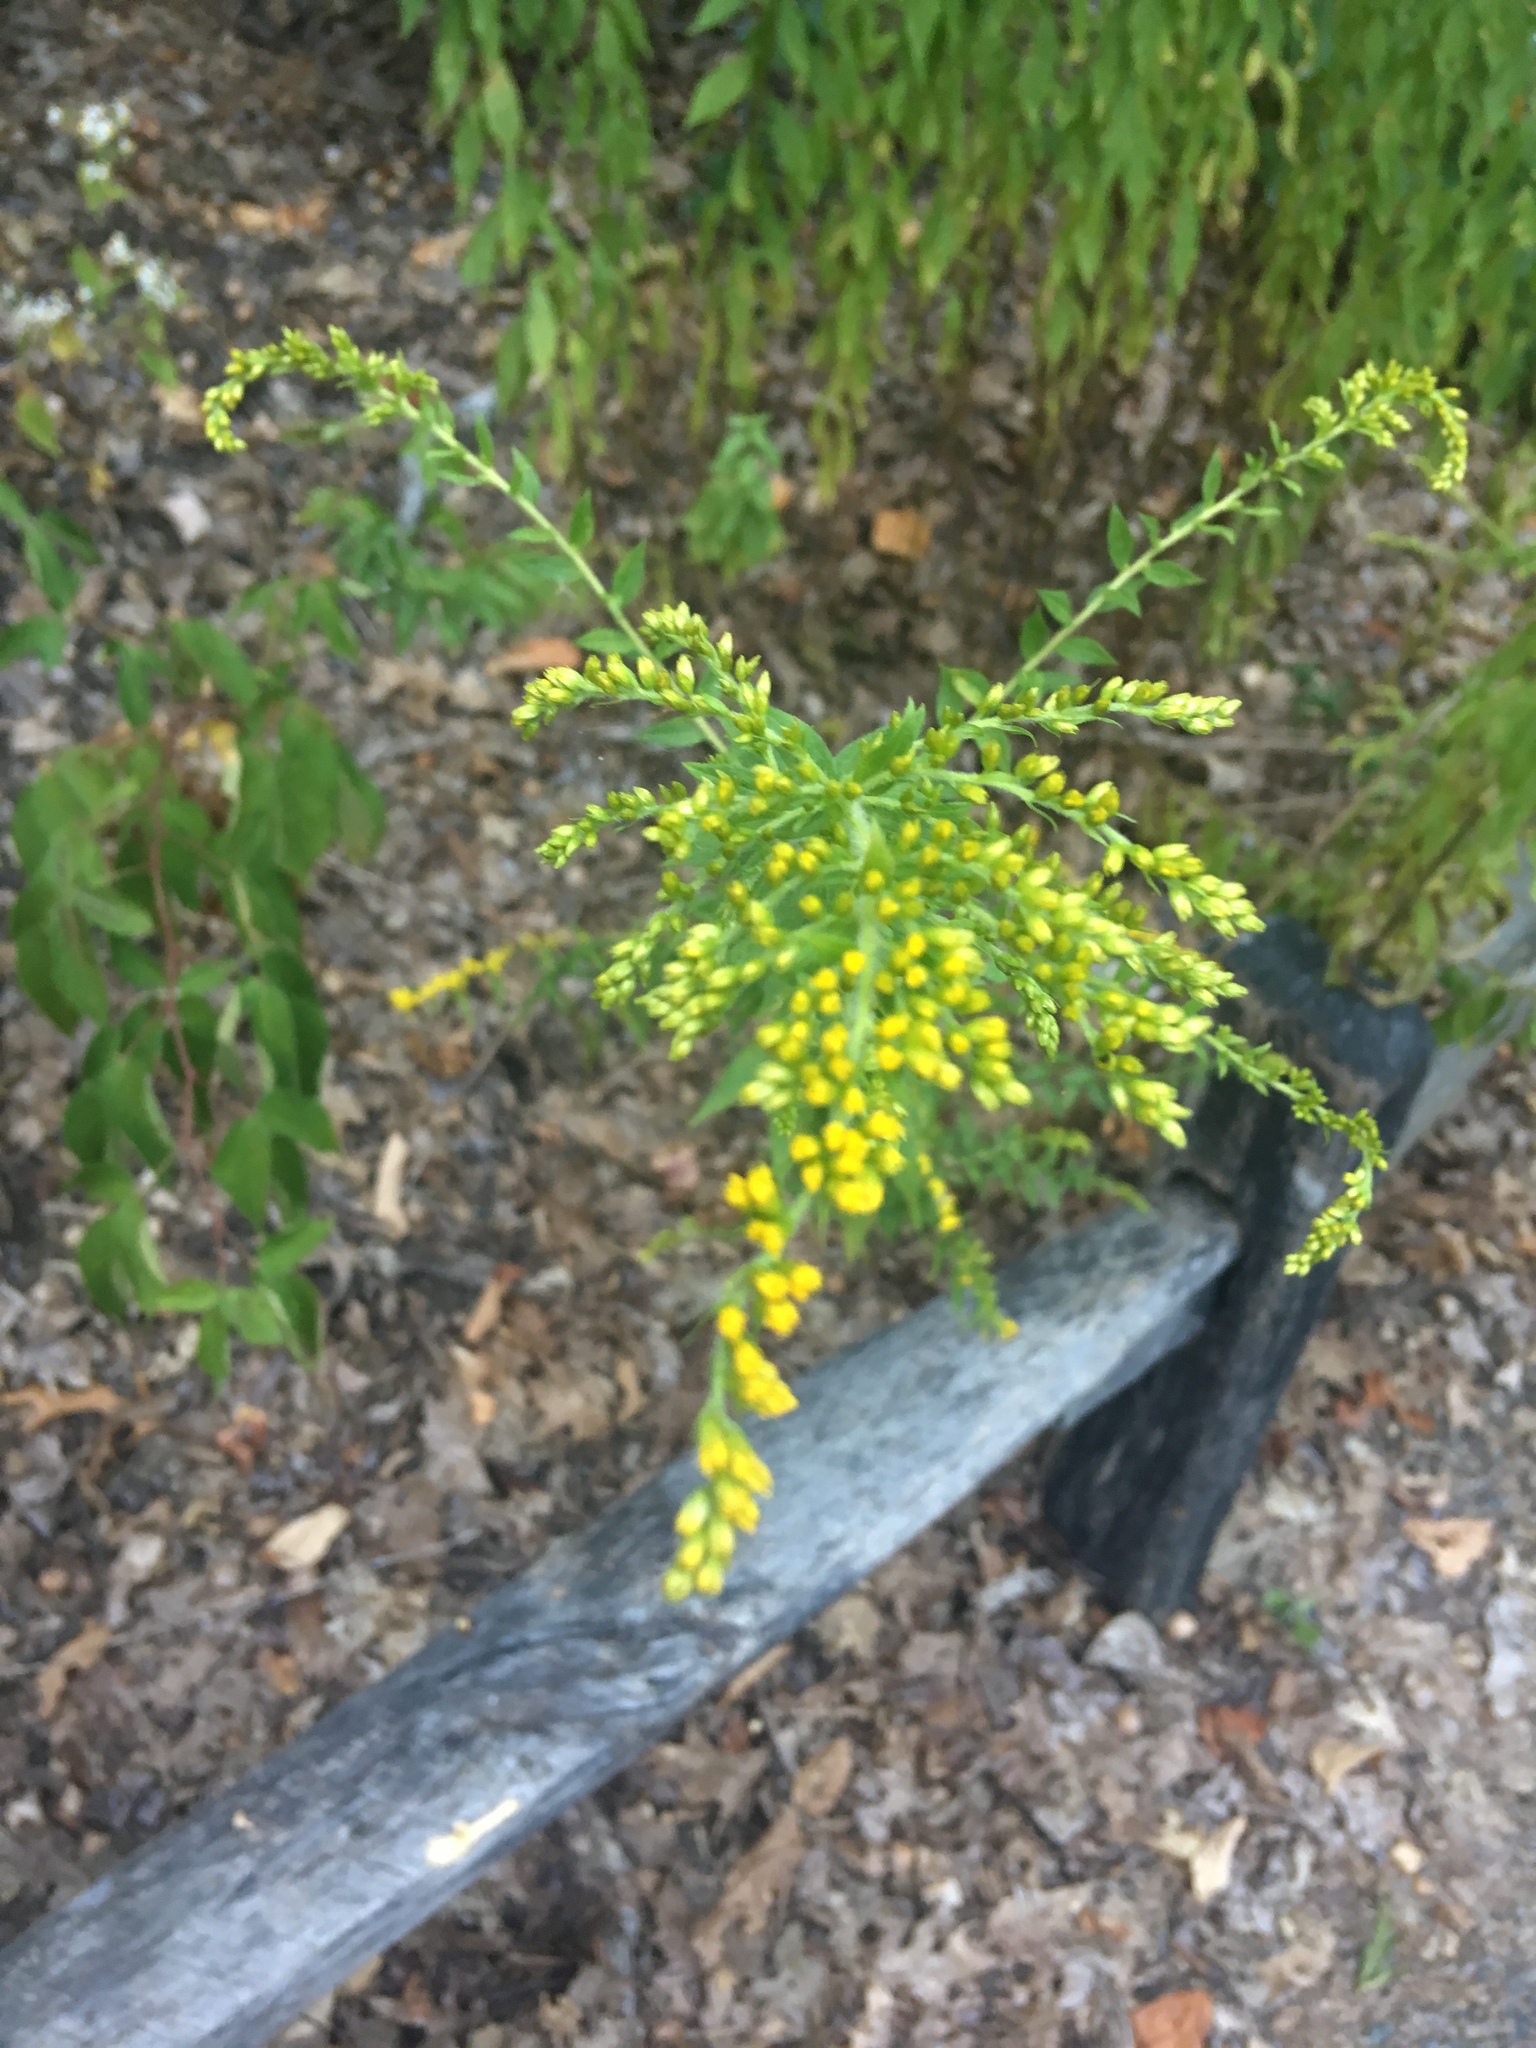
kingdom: Plantae
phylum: Tracheophyta
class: Magnoliopsida
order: Asterales
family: Asteraceae
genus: Solidago
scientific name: Solidago rugosa
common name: Rough-stemmed goldenrod
